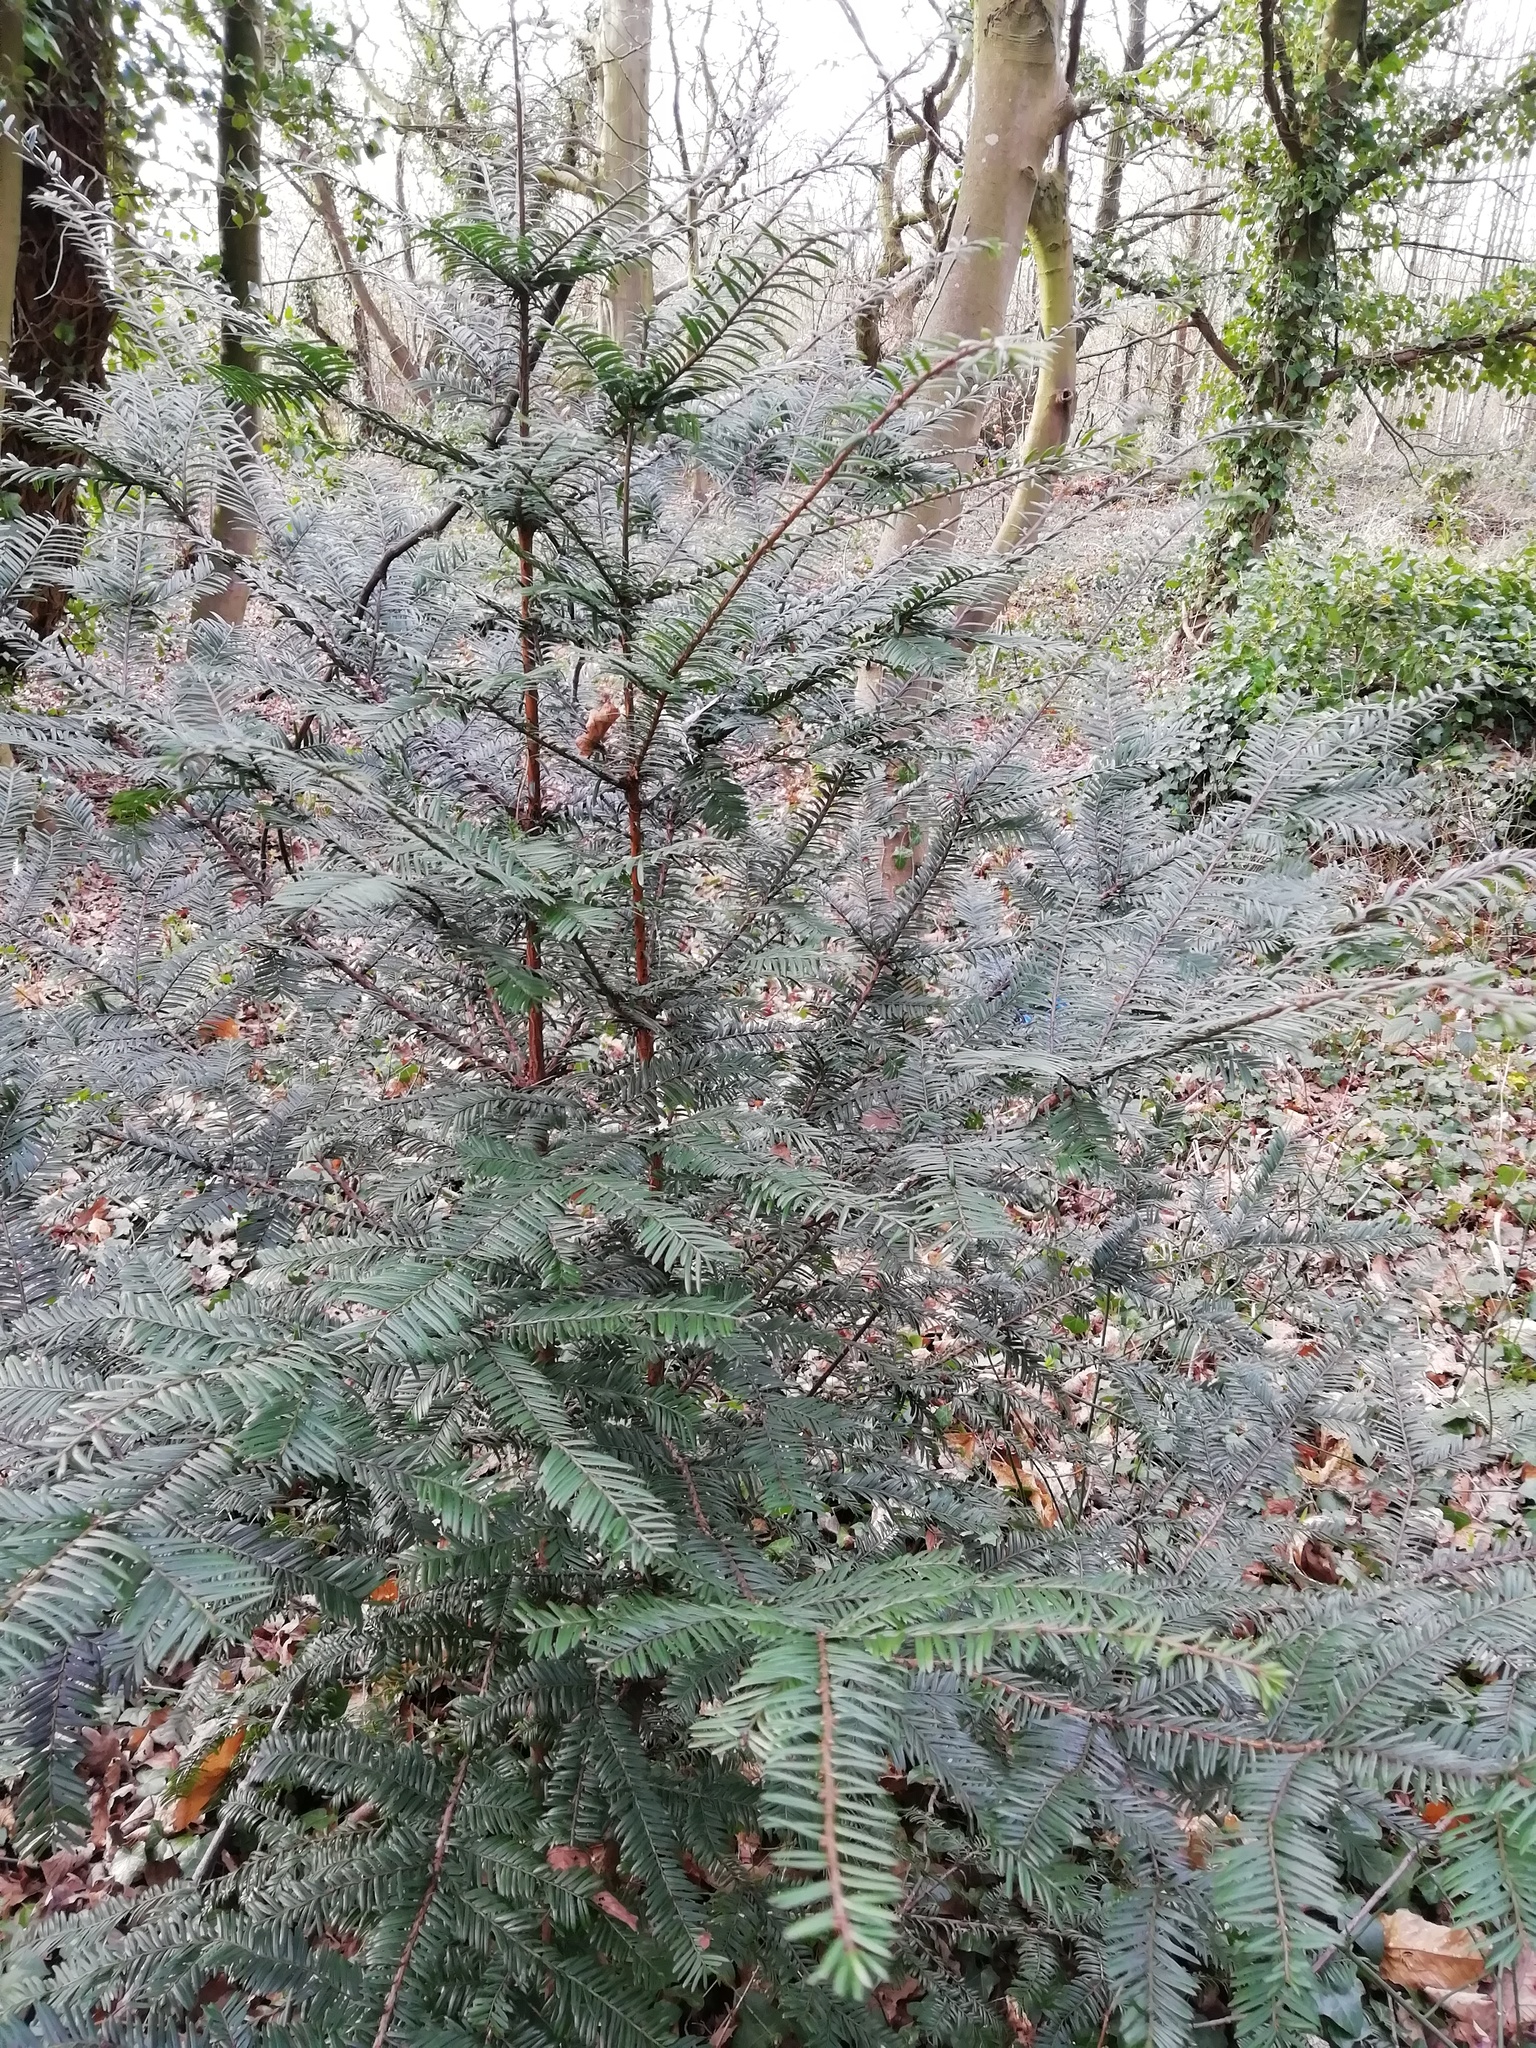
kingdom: Plantae
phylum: Tracheophyta
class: Pinopsida
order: Pinales
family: Taxaceae
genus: Taxus
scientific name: Taxus baccata
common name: Yew
